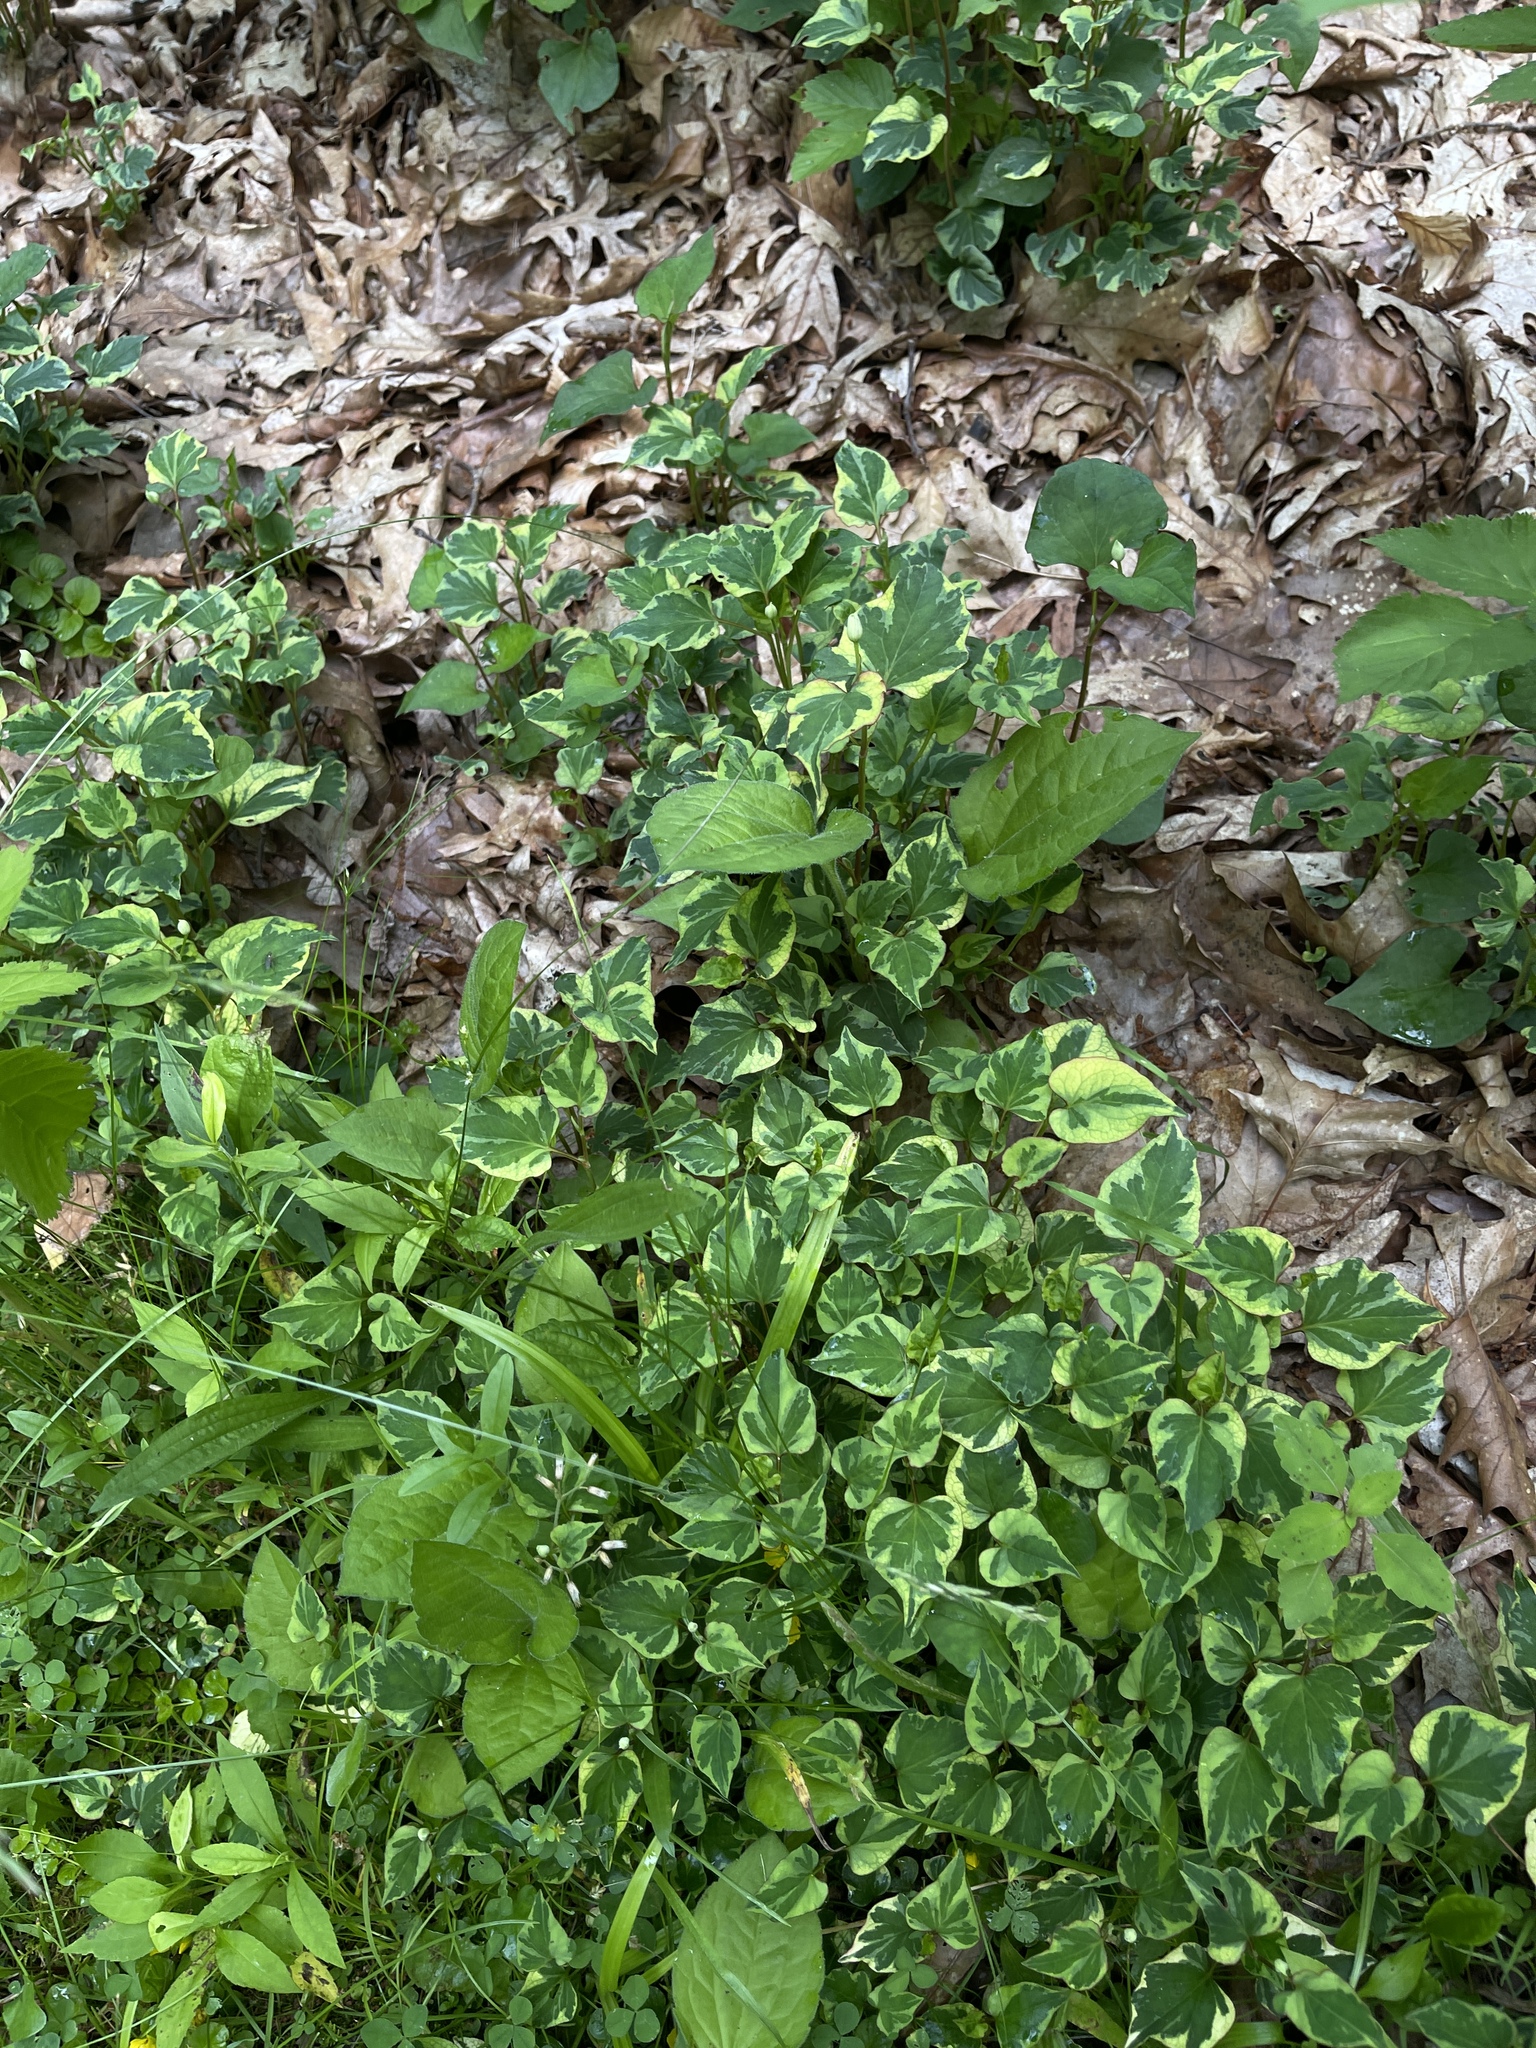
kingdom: Plantae
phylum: Tracheophyta
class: Magnoliopsida
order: Piperales
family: Saururaceae
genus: Houttuynia
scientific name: Houttuynia cordata
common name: Chameleon
